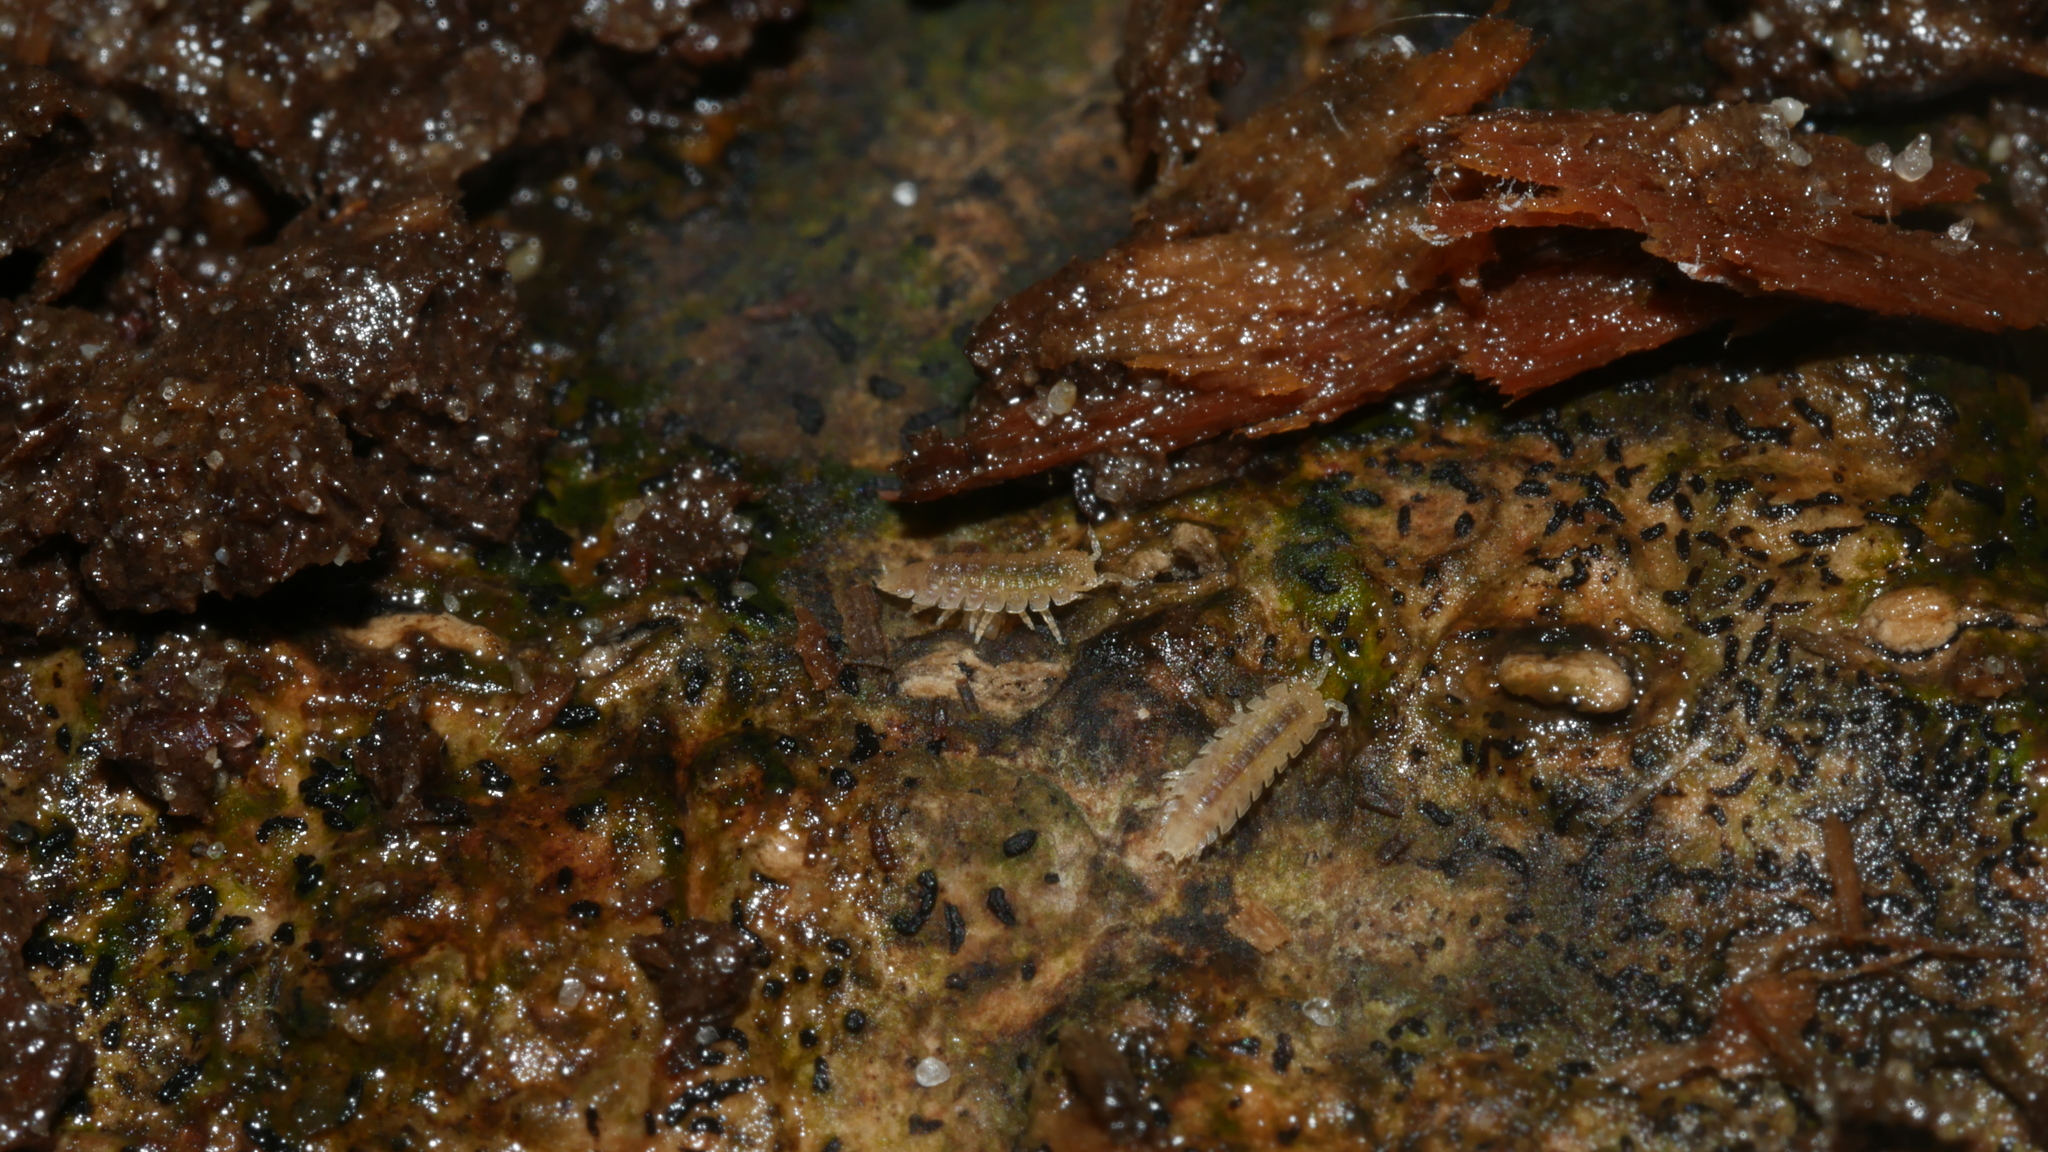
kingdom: Animalia
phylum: Arthropoda
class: Malacostraca
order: Isopoda
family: Trichoniscidae
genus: Haplophthalmus
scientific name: Haplophthalmus danicus
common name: Pillbug
